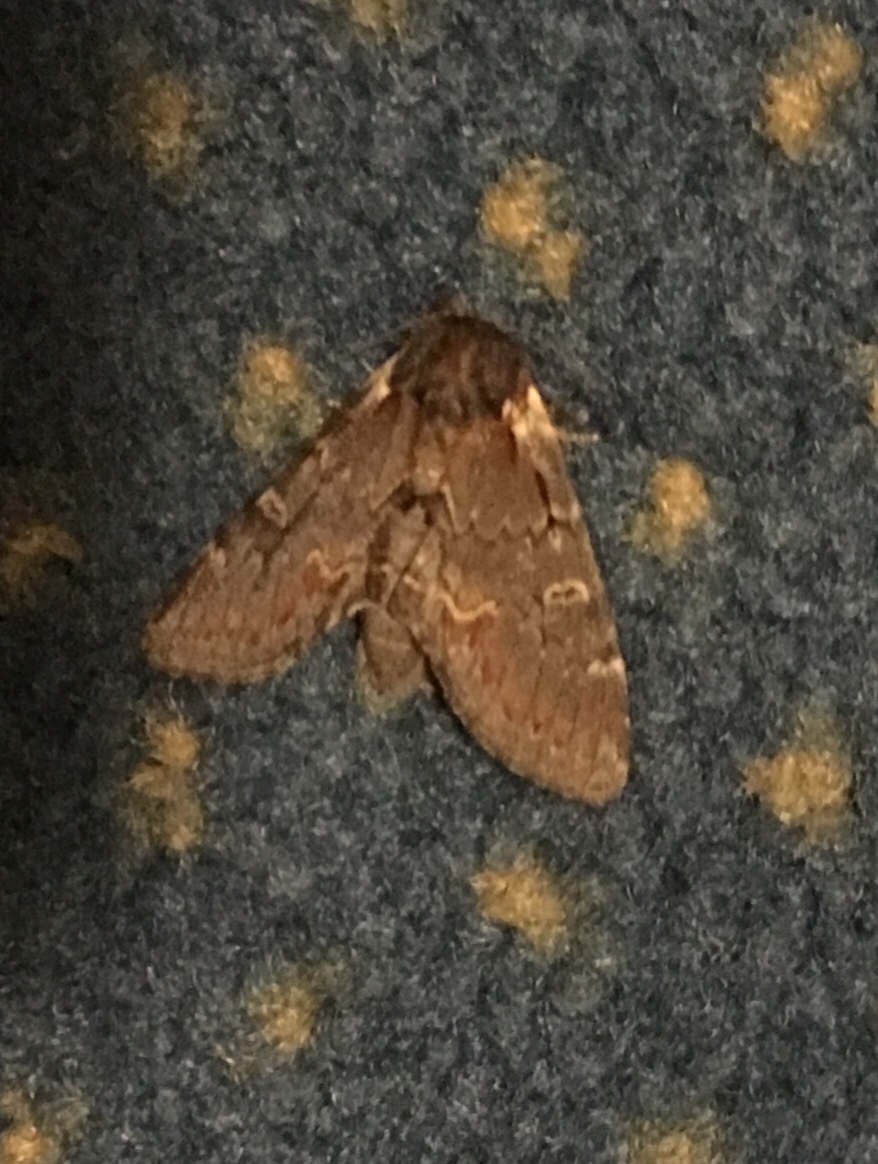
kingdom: Animalia
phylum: Arthropoda
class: Insecta
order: Lepidoptera
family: Notodontidae
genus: Notodonta
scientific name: Notodonta dromedarius
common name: Iron prominent
